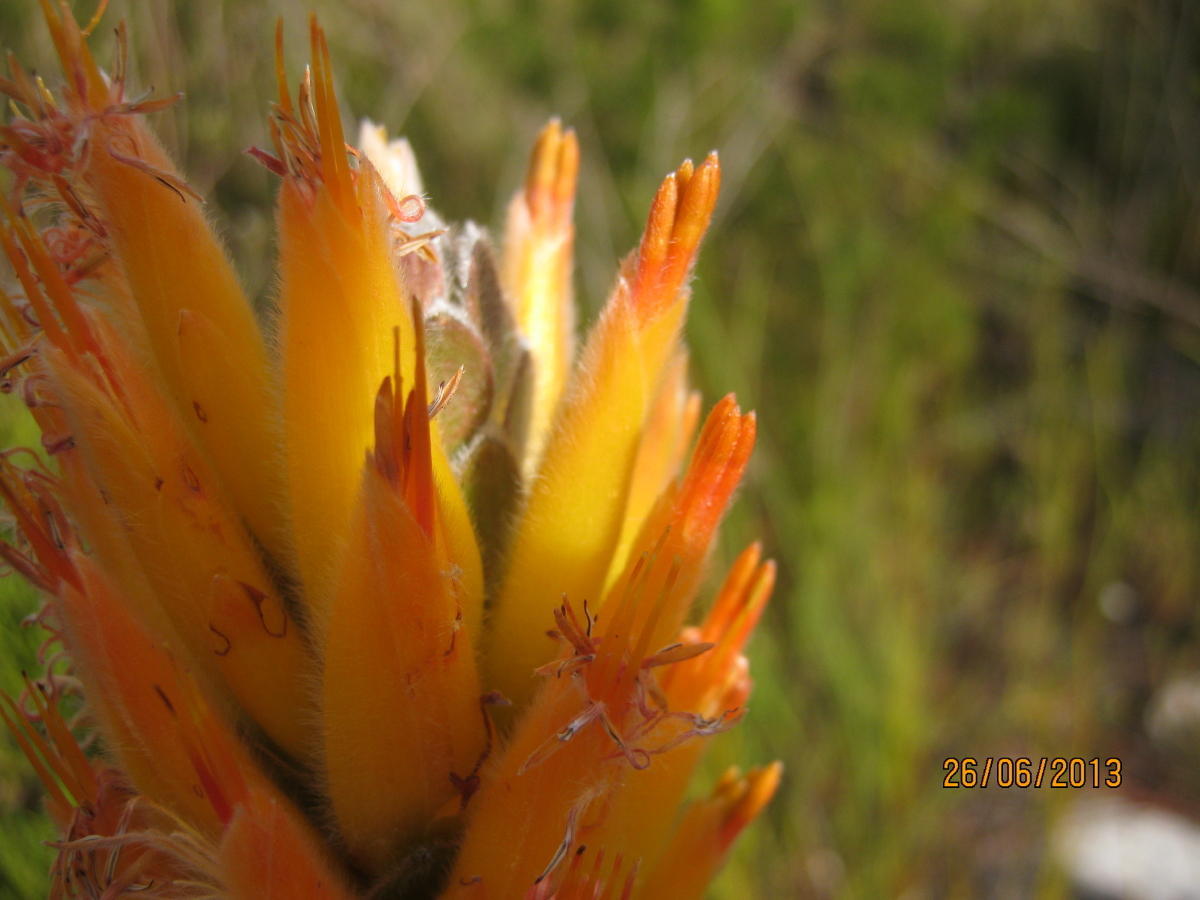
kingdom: Plantae
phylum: Tracheophyta
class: Magnoliopsida
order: Proteales
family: Proteaceae
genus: Mimetes
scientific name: Mimetes pauciflora
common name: Three-flowered pagoda
